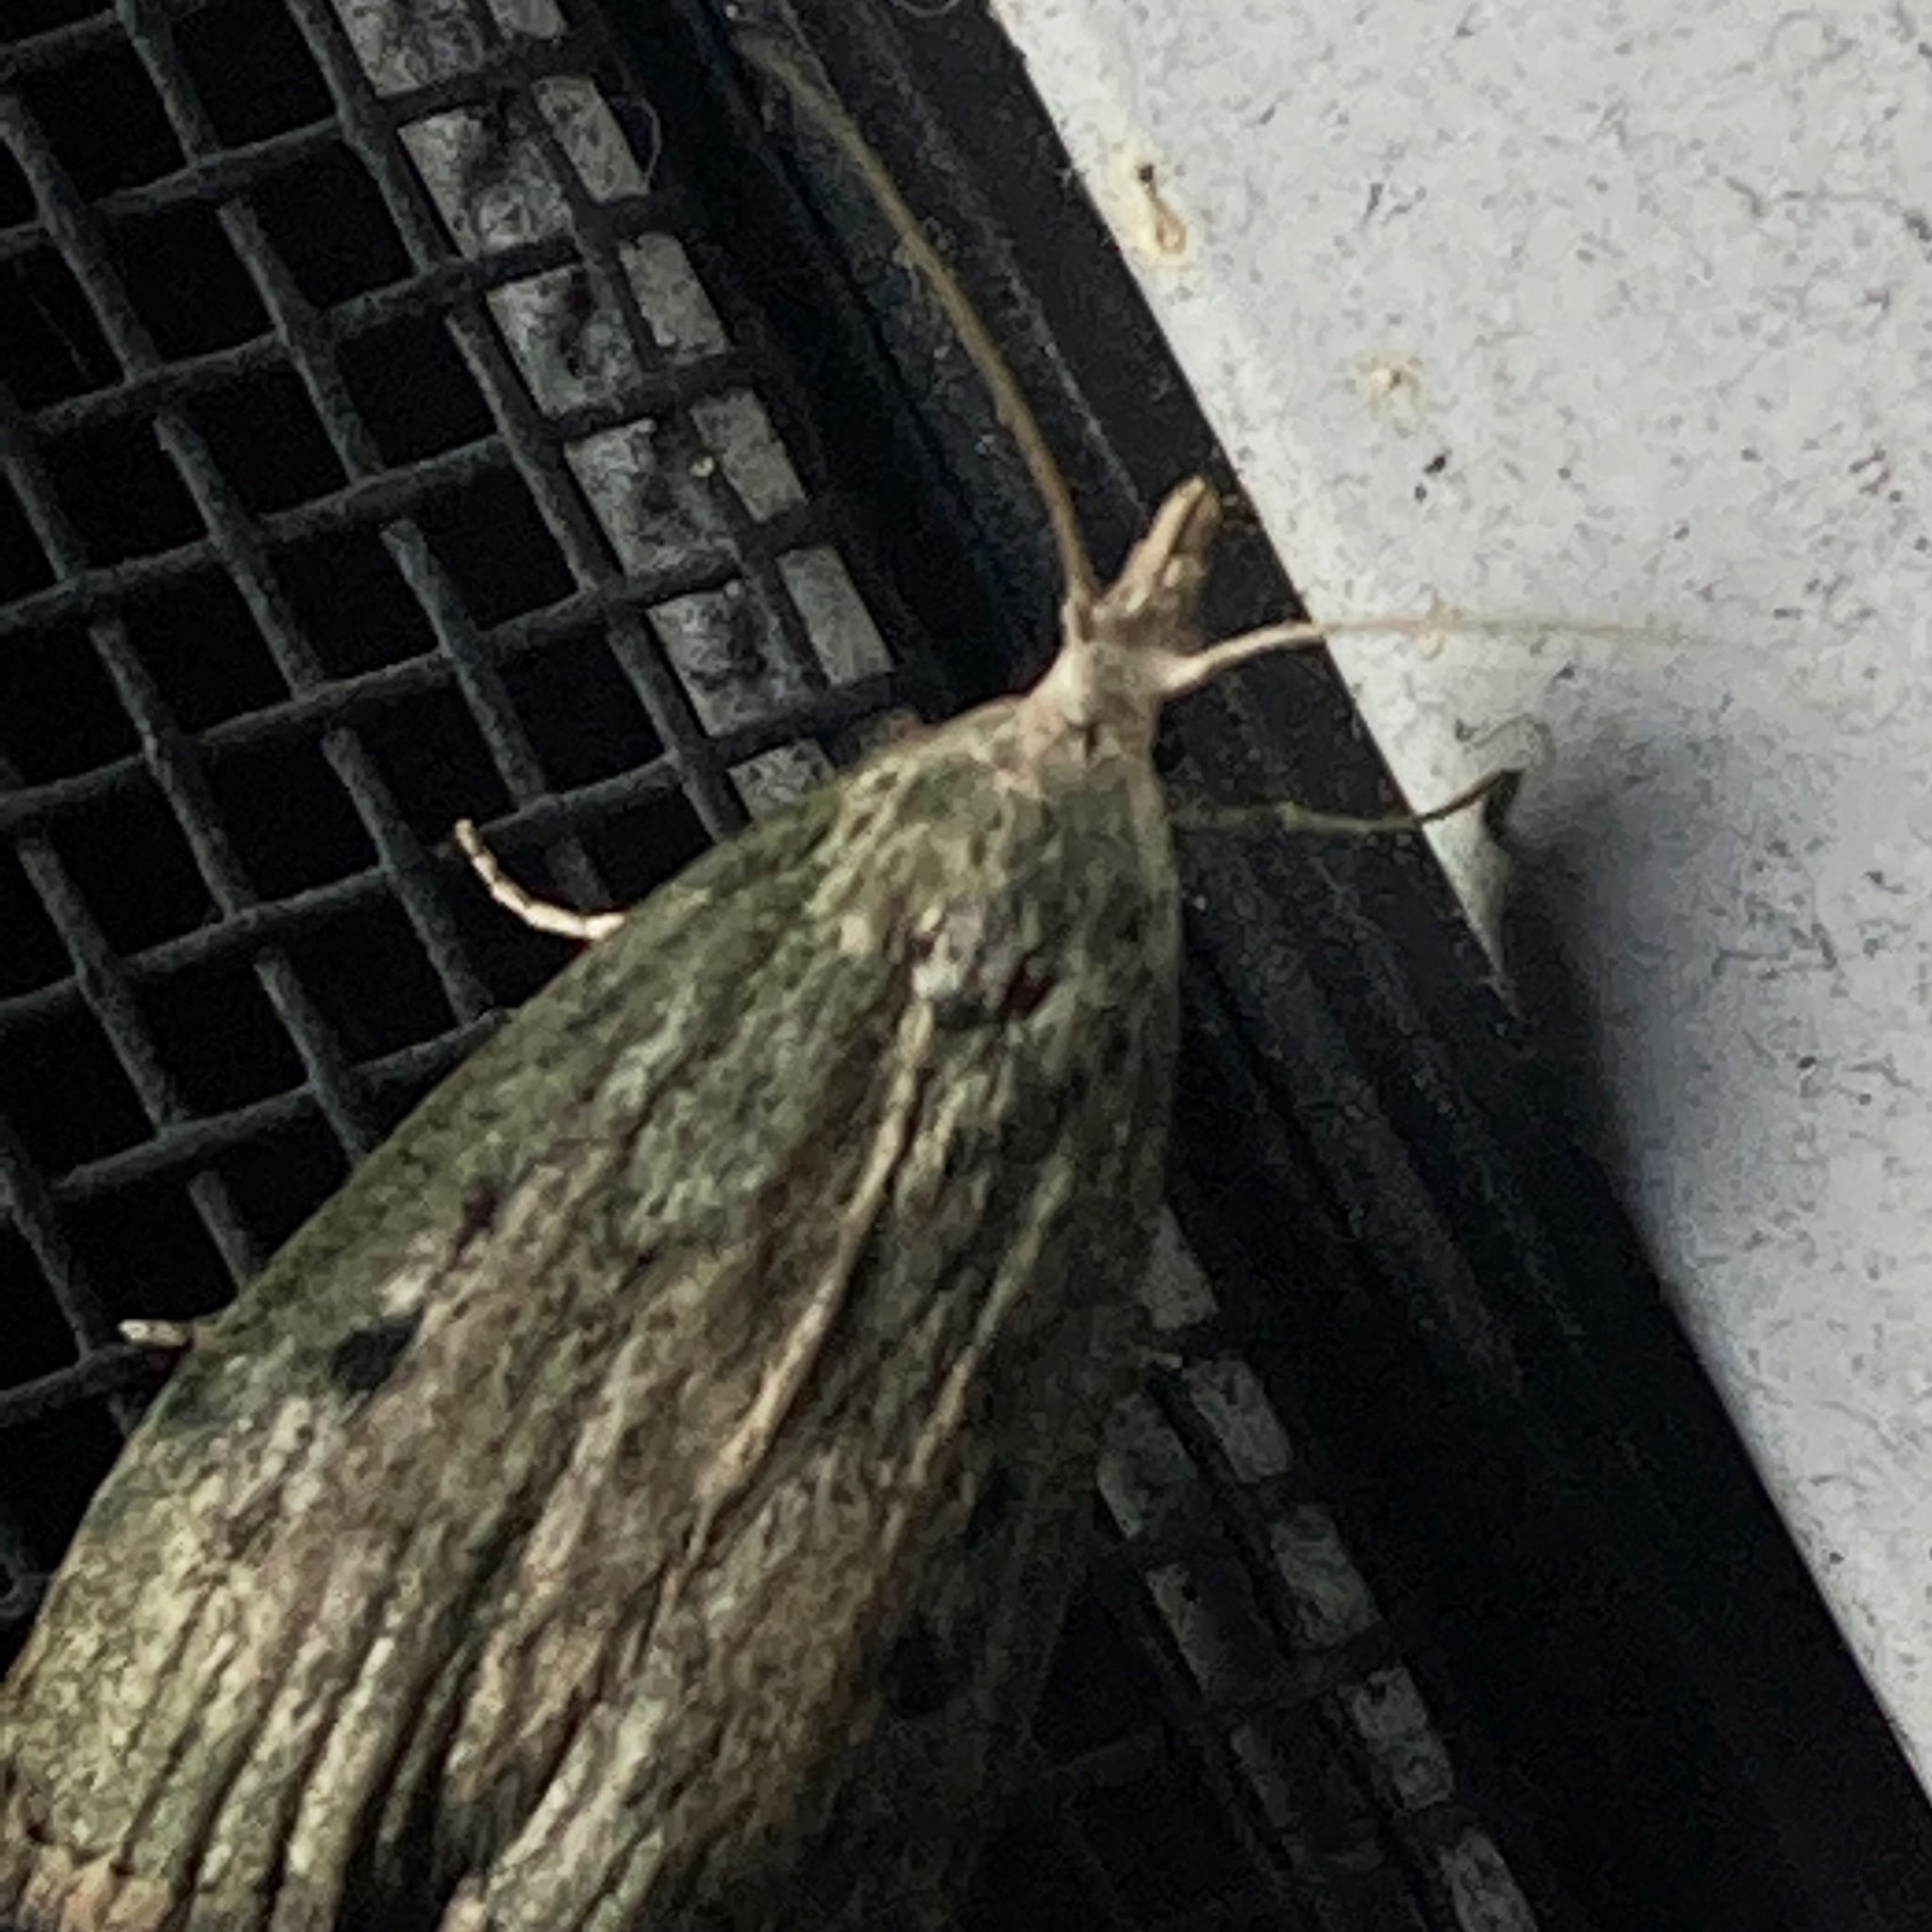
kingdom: Animalia
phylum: Arthropoda
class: Insecta
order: Lepidoptera
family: Pyralidae
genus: Aphomia
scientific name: Aphomia sociella
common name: Bee moth
